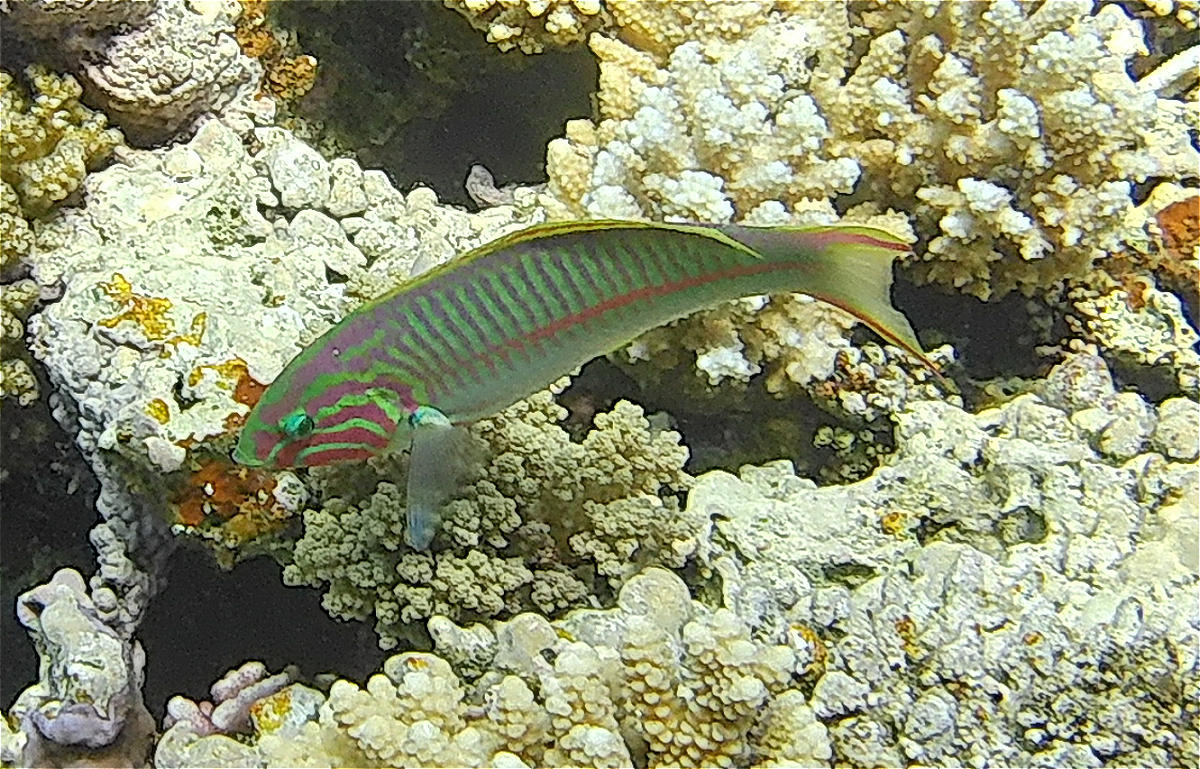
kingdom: Animalia
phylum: Chordata
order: Perciformes
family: Labridae
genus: Thalassoma
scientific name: Thalassoma rueppellii
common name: Klunzinger's wrasse
